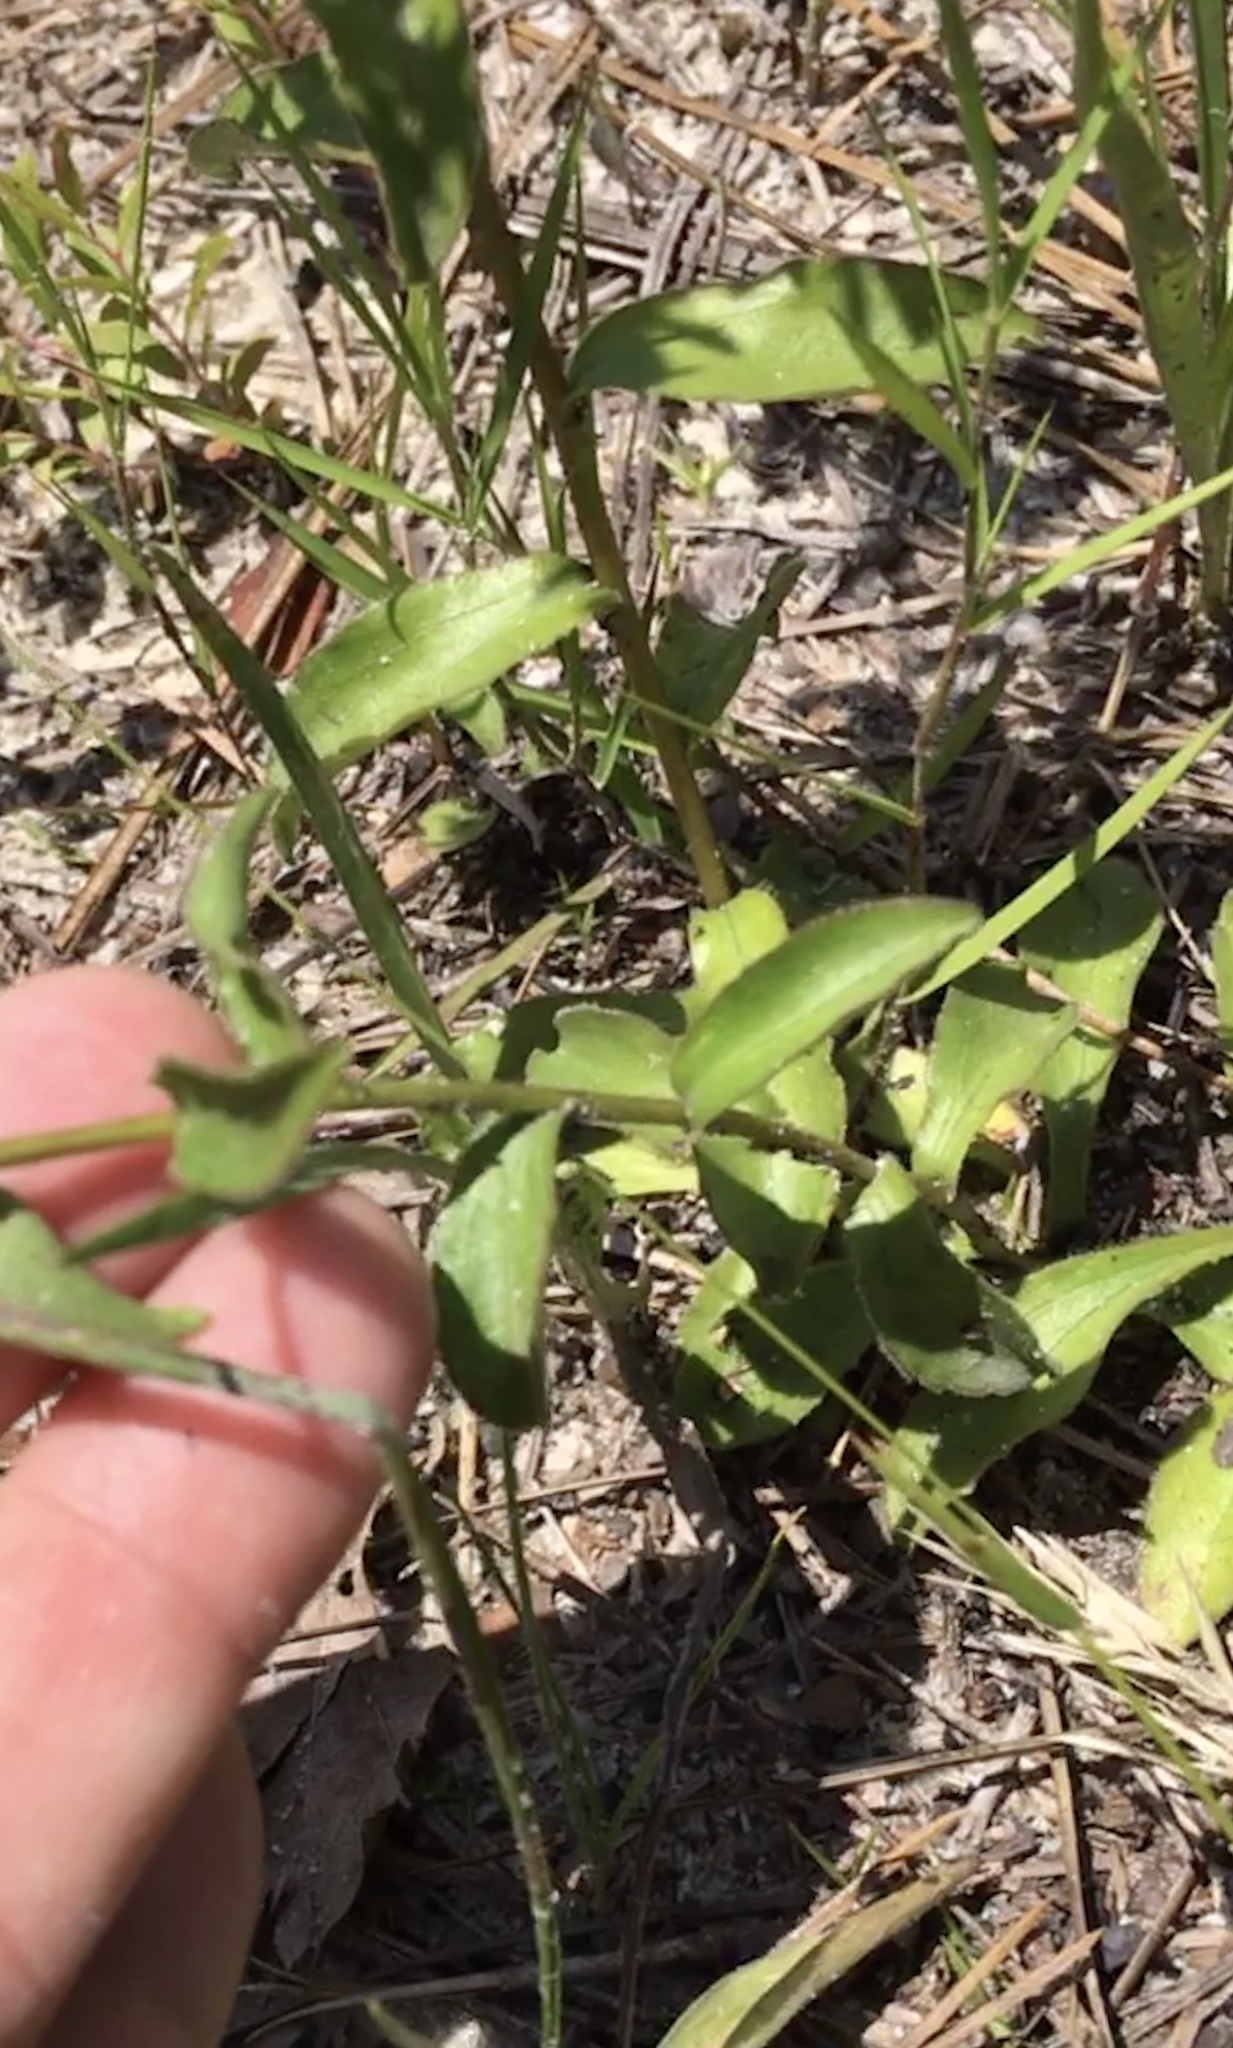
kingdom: Plantae
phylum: Tracheophyta
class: Magnoliopsida
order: Asterales
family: Asteraceae
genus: Sericocarpus
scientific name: Sericocarpus asteroides
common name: Toothed white-top aster
